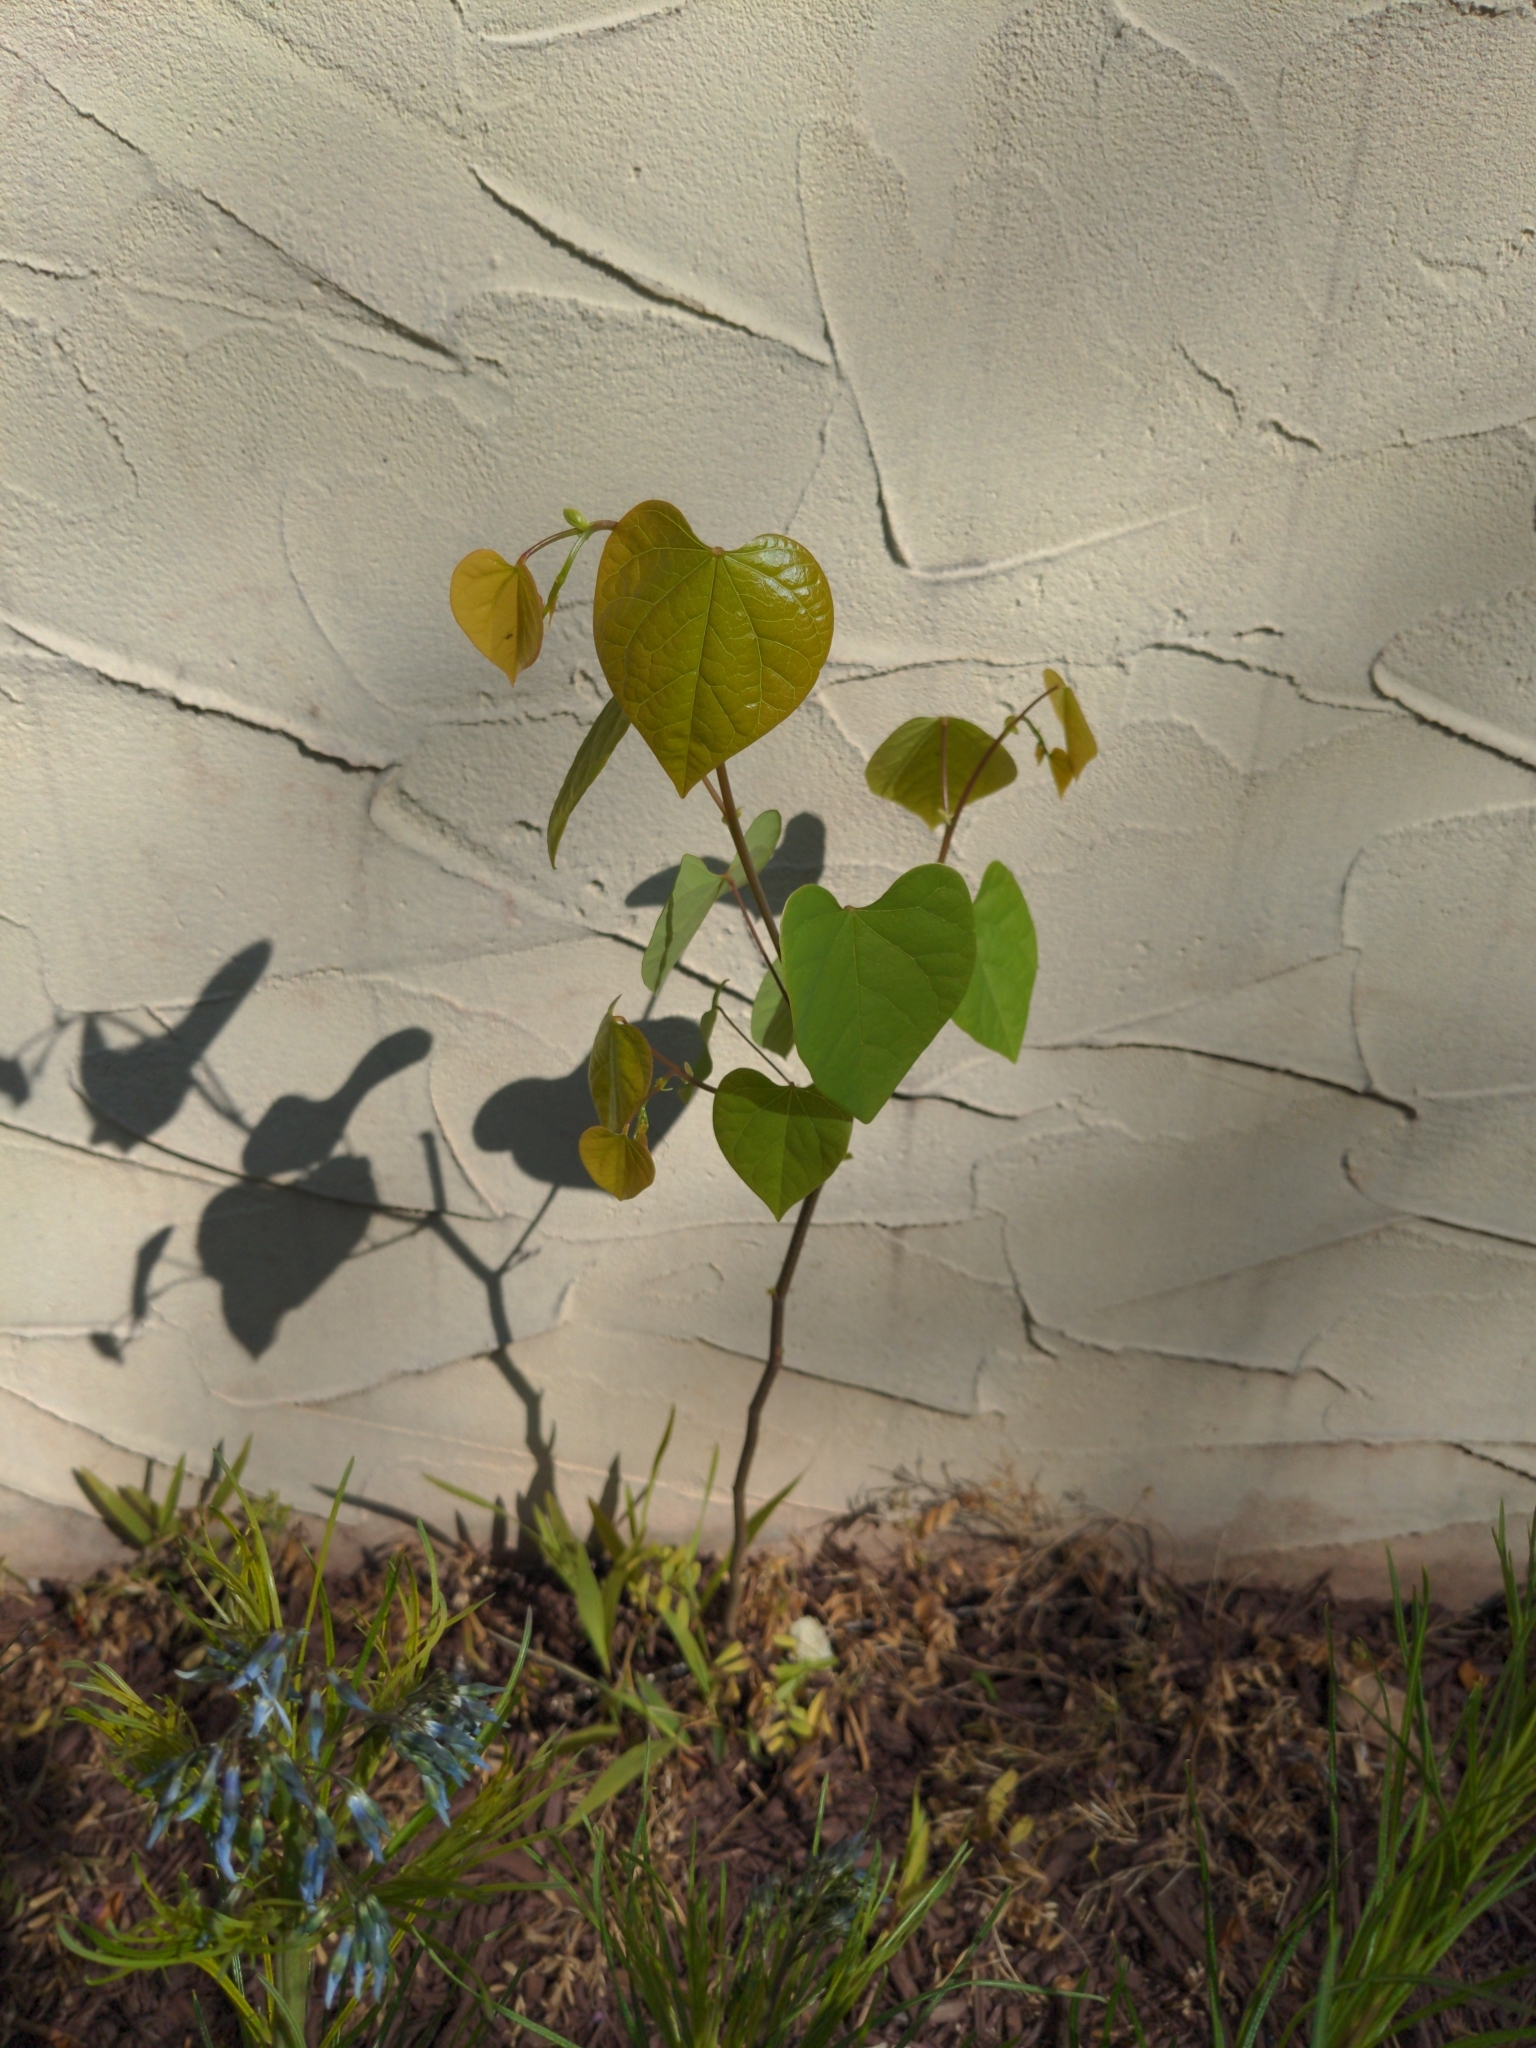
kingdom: Plantae
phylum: Tracheophyta
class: Magnoliopsida
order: Fabales
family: Fabaceae
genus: Cercis
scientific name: Cercis canadensis
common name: Eastern redbud
